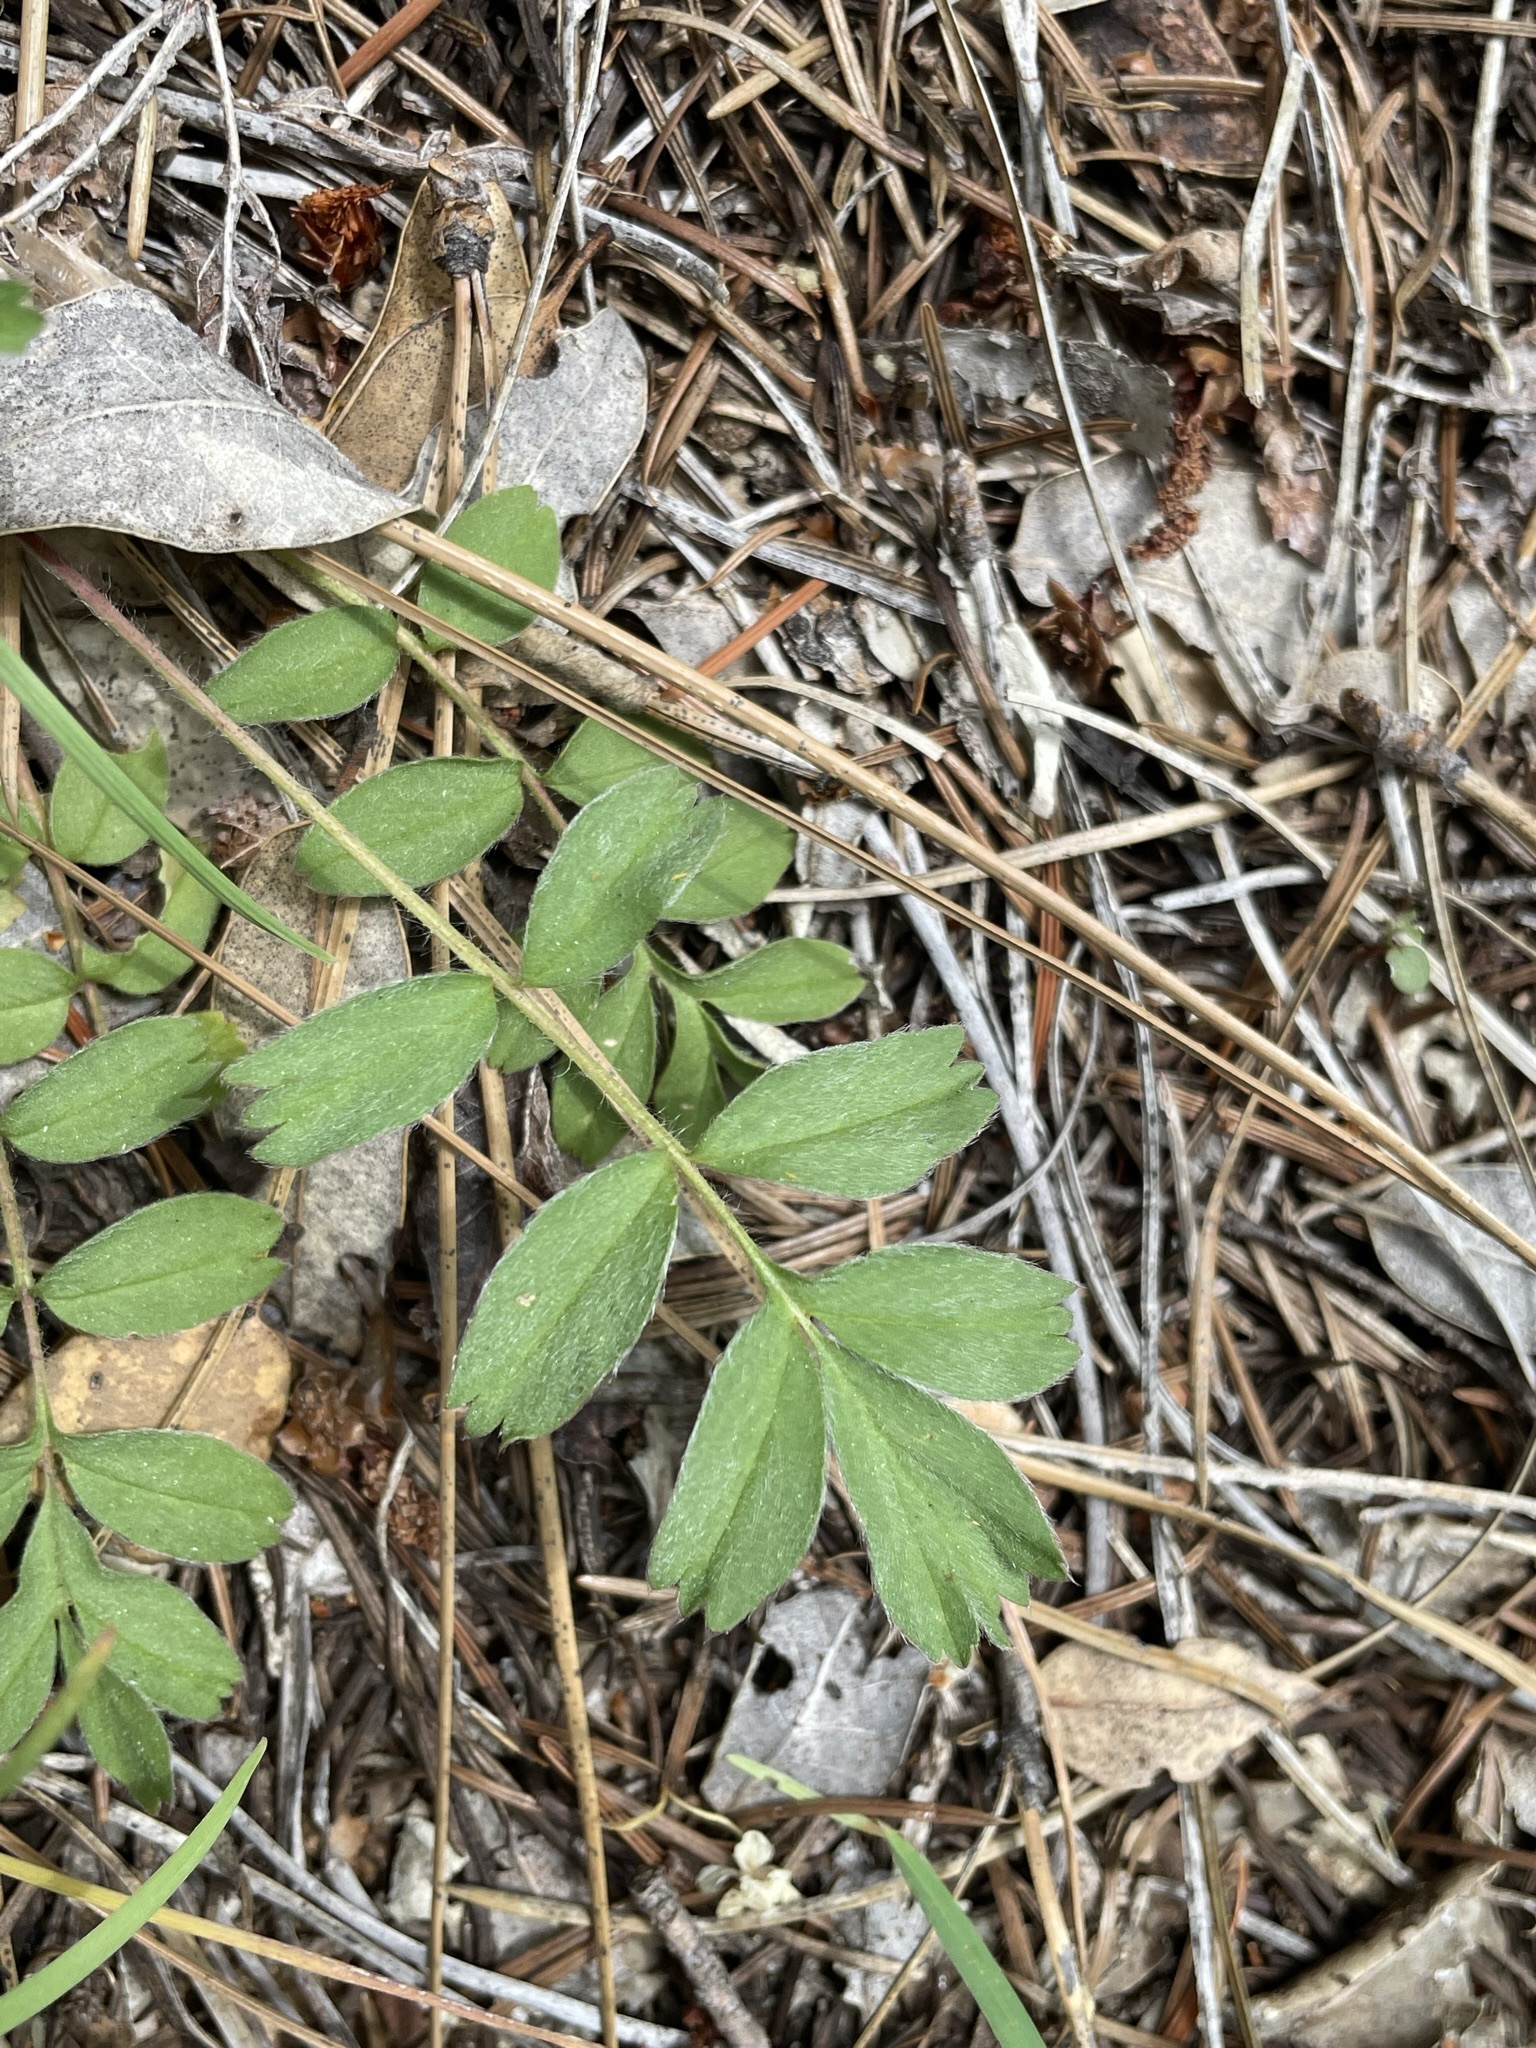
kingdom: Plantae
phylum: Tracheophyta
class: Magnoliopsida
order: Rosales
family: Rosaceae
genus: Potentilla
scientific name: Potentilla tilingii
